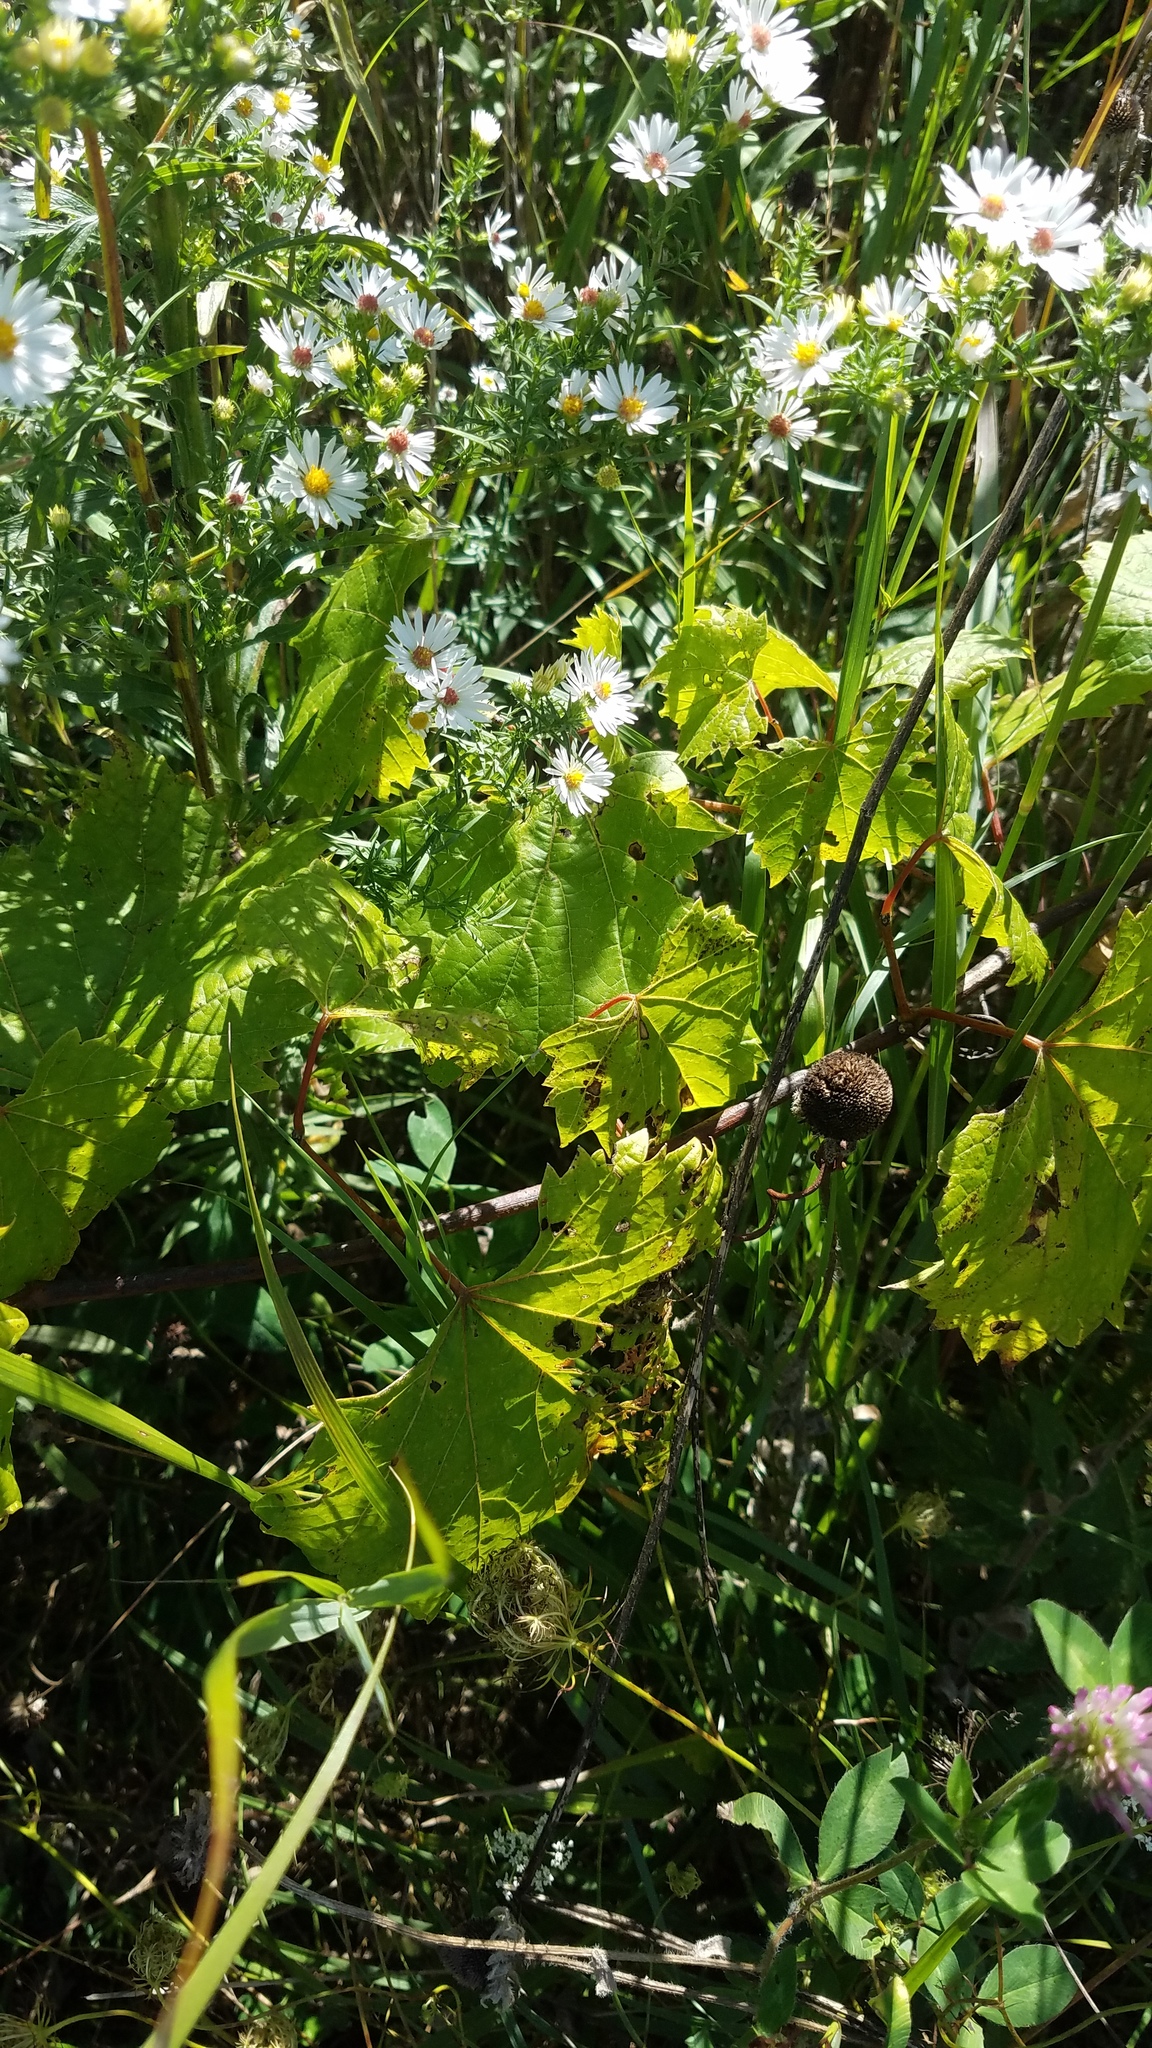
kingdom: Plantae
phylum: Tracheophyta
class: Magnoliopsida
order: Vitales
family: Vitaceae
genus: Vitis
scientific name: Vitis riparia
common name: Frost grape
